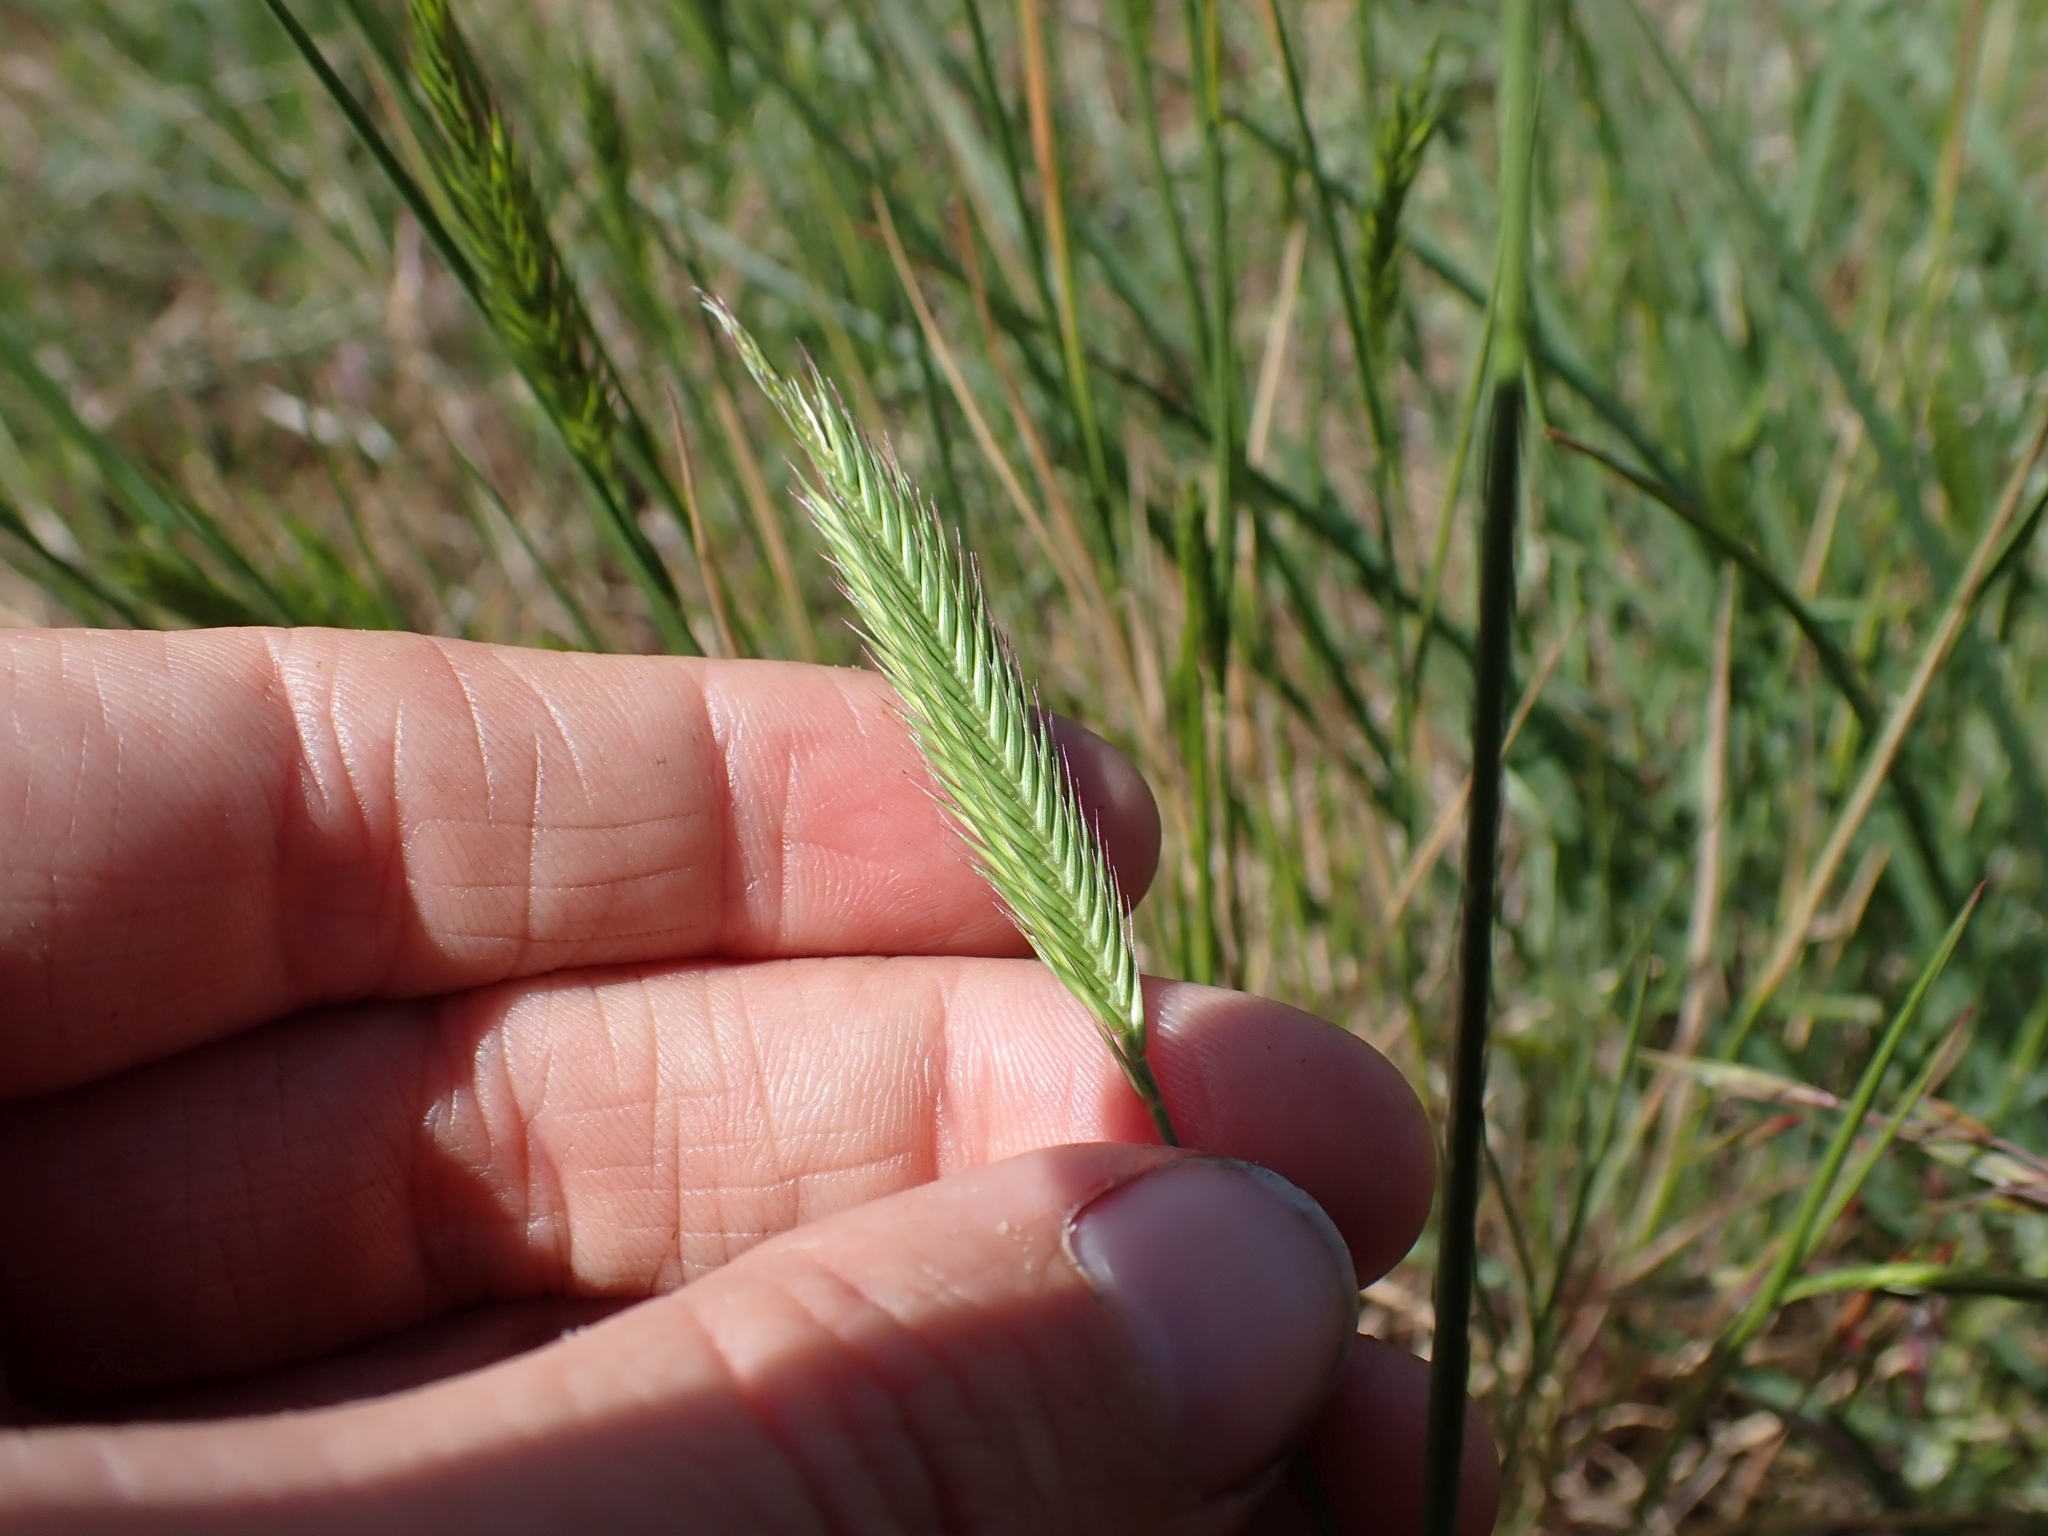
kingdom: Plantae
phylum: Tracheophyta
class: Liliopsida
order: Poales
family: Poaceae
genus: Agropyron
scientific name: Agropyron cristatum
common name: Crested wheatgrass
